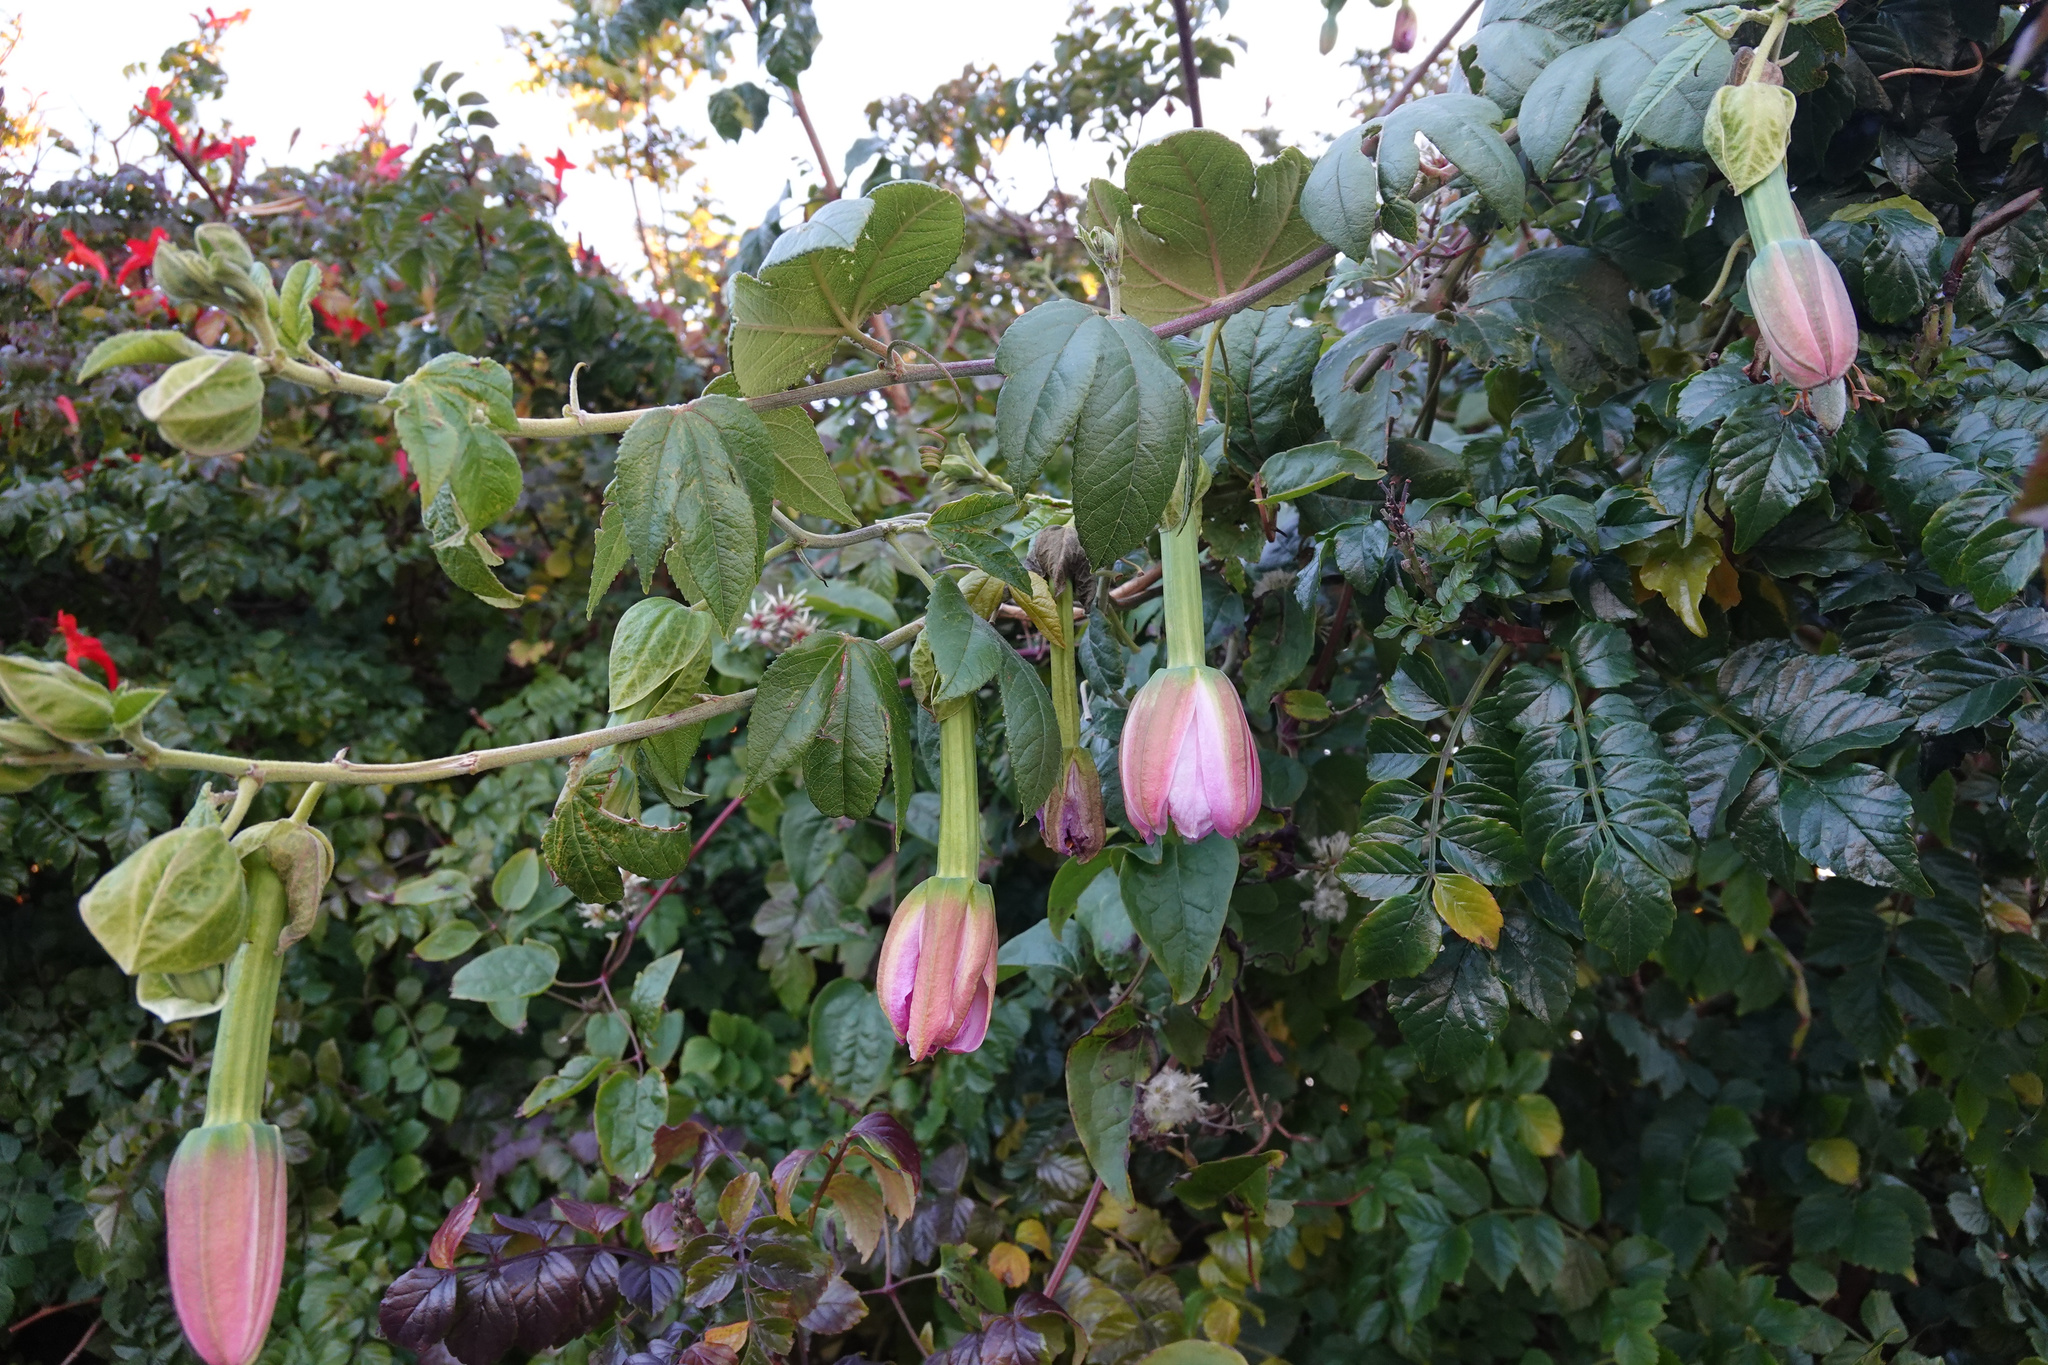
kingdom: Plantae
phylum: Tracheophyta
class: Magnoliopsida
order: Malpighiales
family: Passifloraceae
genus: Passiflora
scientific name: Passiflora tarminiana
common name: Banana poka
